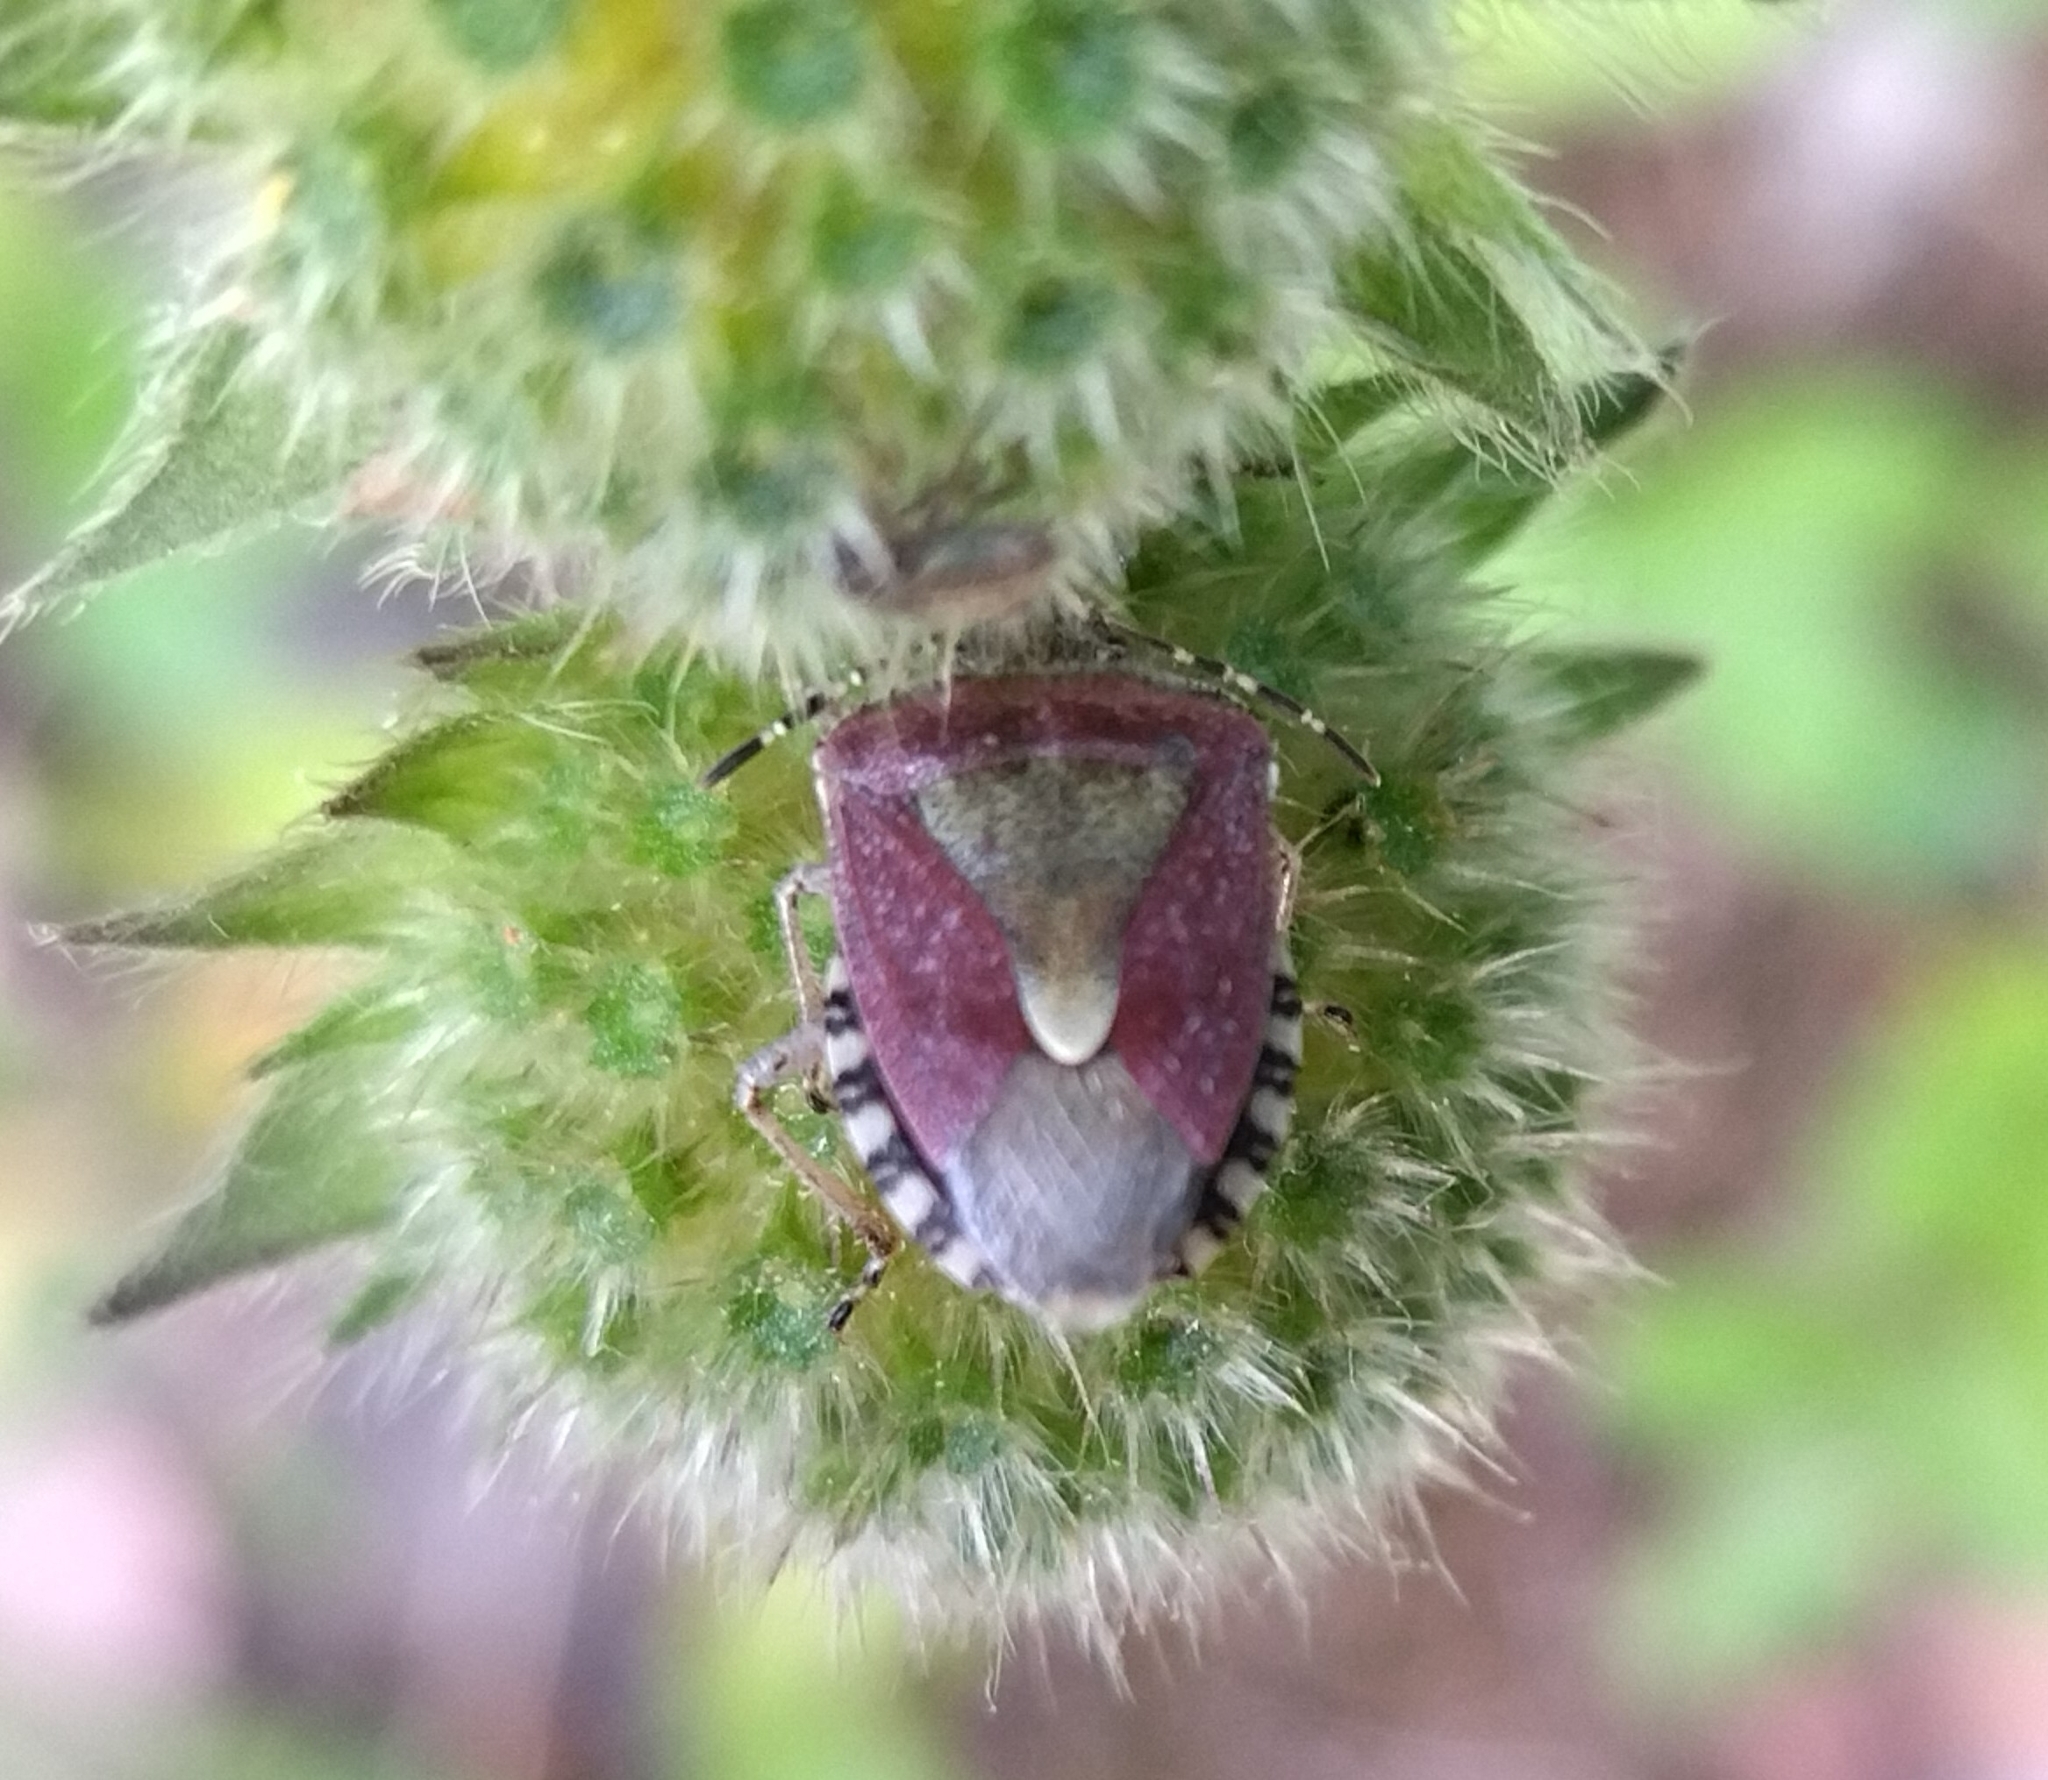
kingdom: Animalia
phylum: Arthropoda
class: Insecta
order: Hemiptera
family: Pentatomidae
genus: Dolycoris
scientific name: Dolycoris baccarum
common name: Sloe bug
